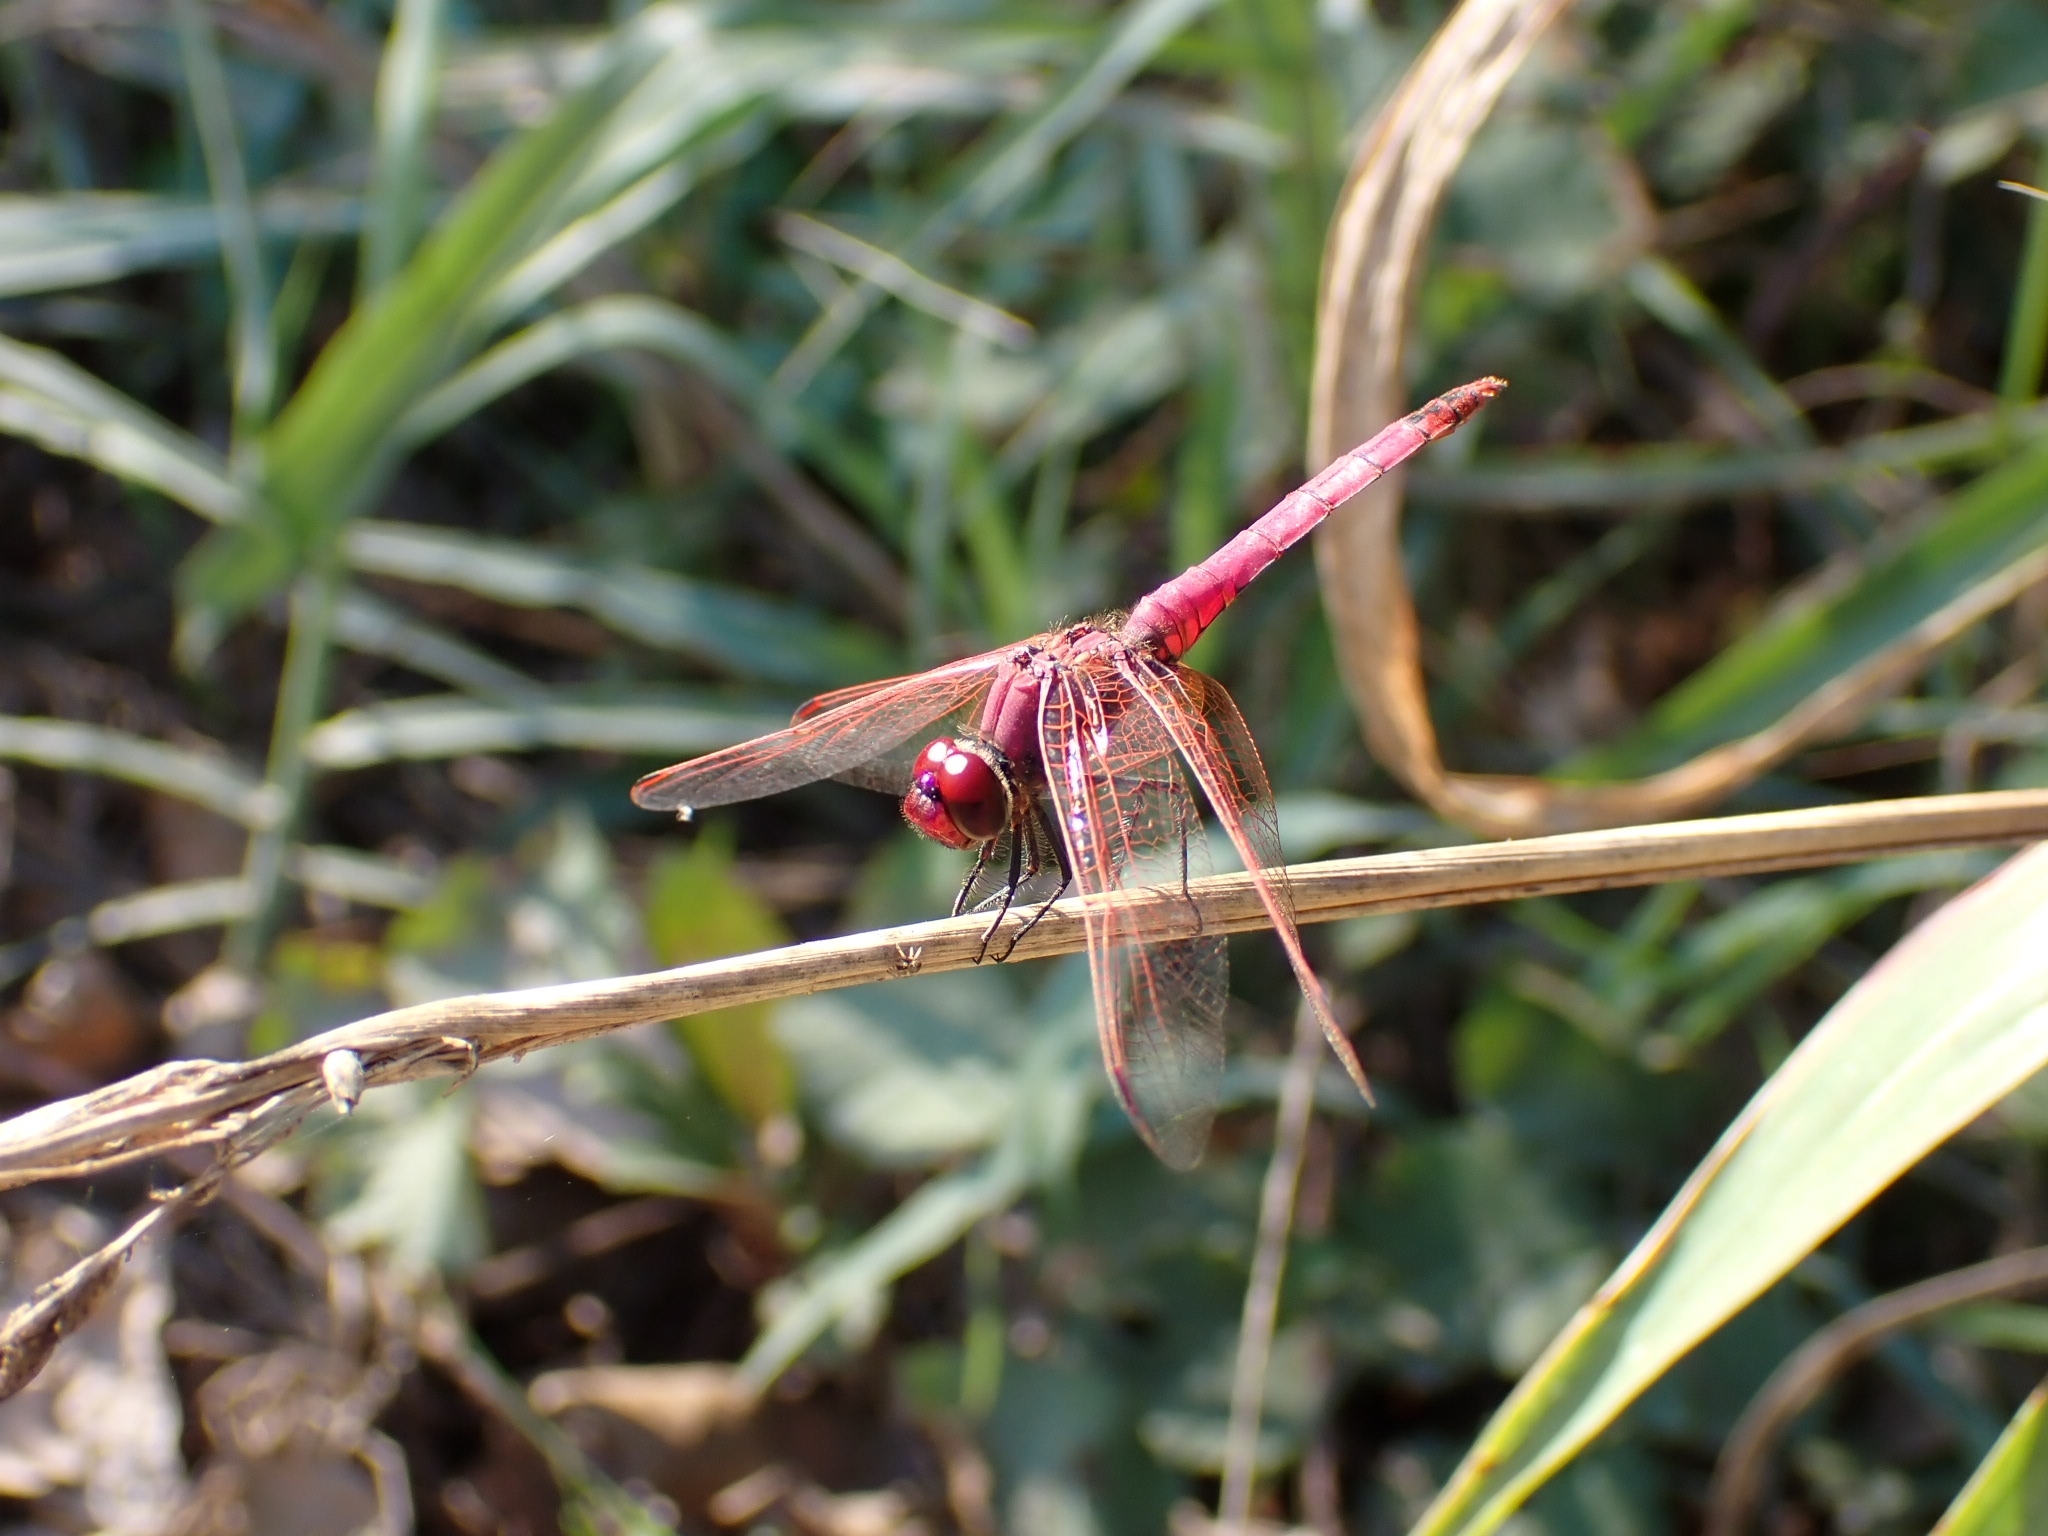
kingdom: Animalia
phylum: Arthropoda
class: Insecta
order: Odonata
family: Libellulidae
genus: Trithemis
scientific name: Trithemis annulata
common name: Violet dropwing
